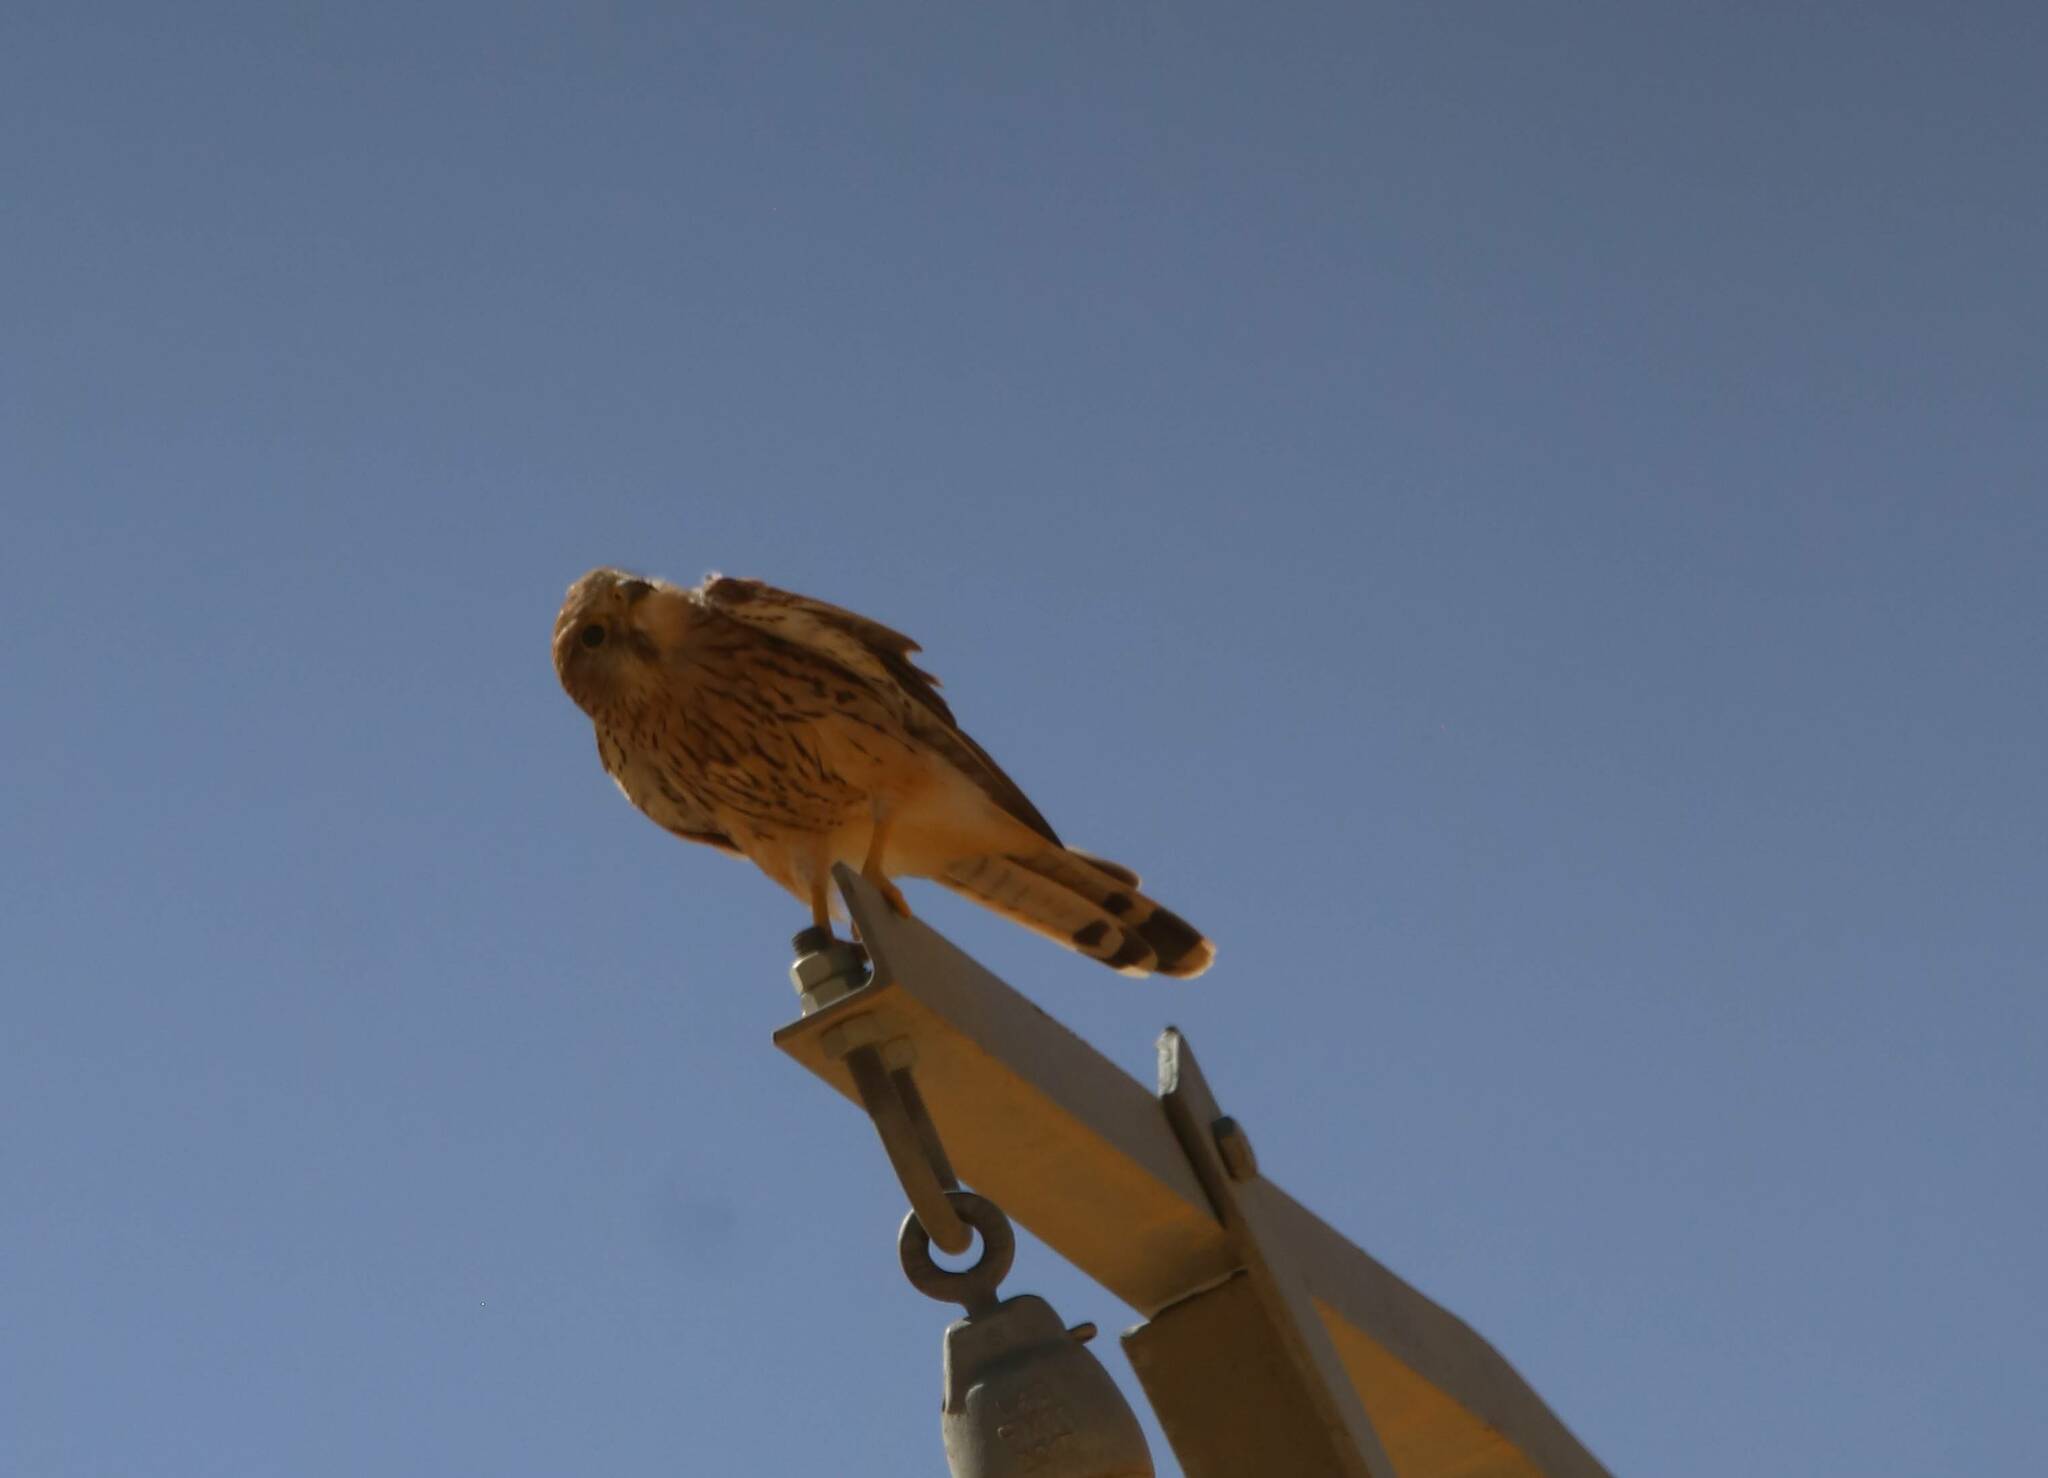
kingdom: Animalia
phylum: Chordata
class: Aves
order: Falconiformes
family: Falconidae
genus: Falco
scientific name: Falco tinnunculus
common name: Common kestrel
